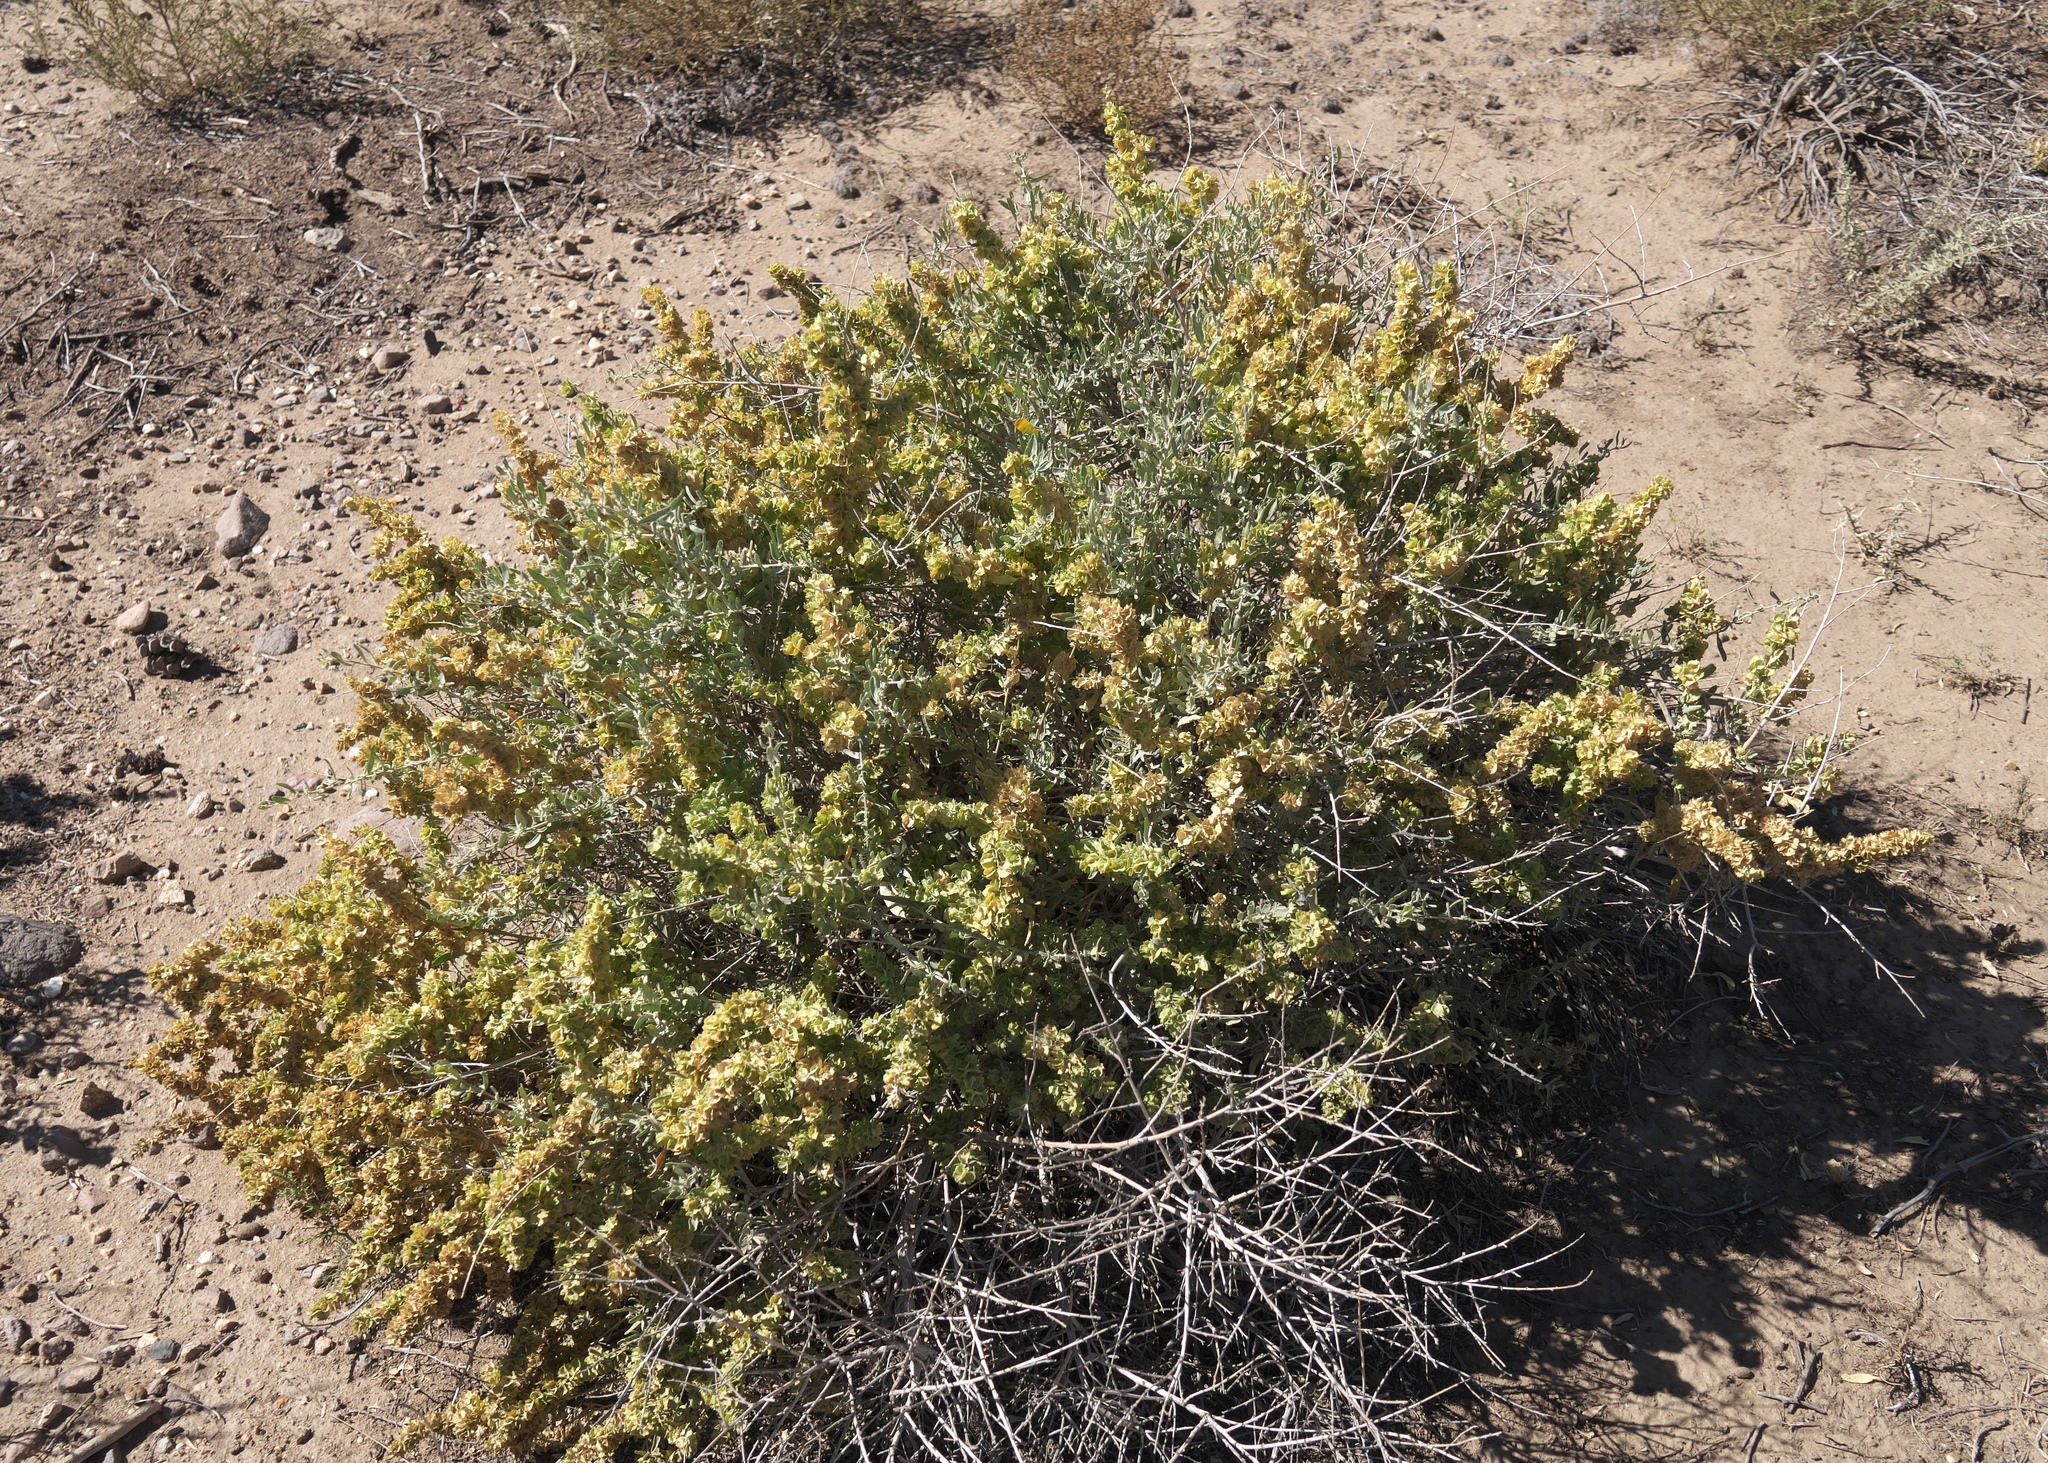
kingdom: Plantae
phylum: Tracheophyta
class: Magnoliopsida
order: Caryophyllales
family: Amaranthaceae
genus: Atriplex
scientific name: Atriplex canescens
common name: Four-wing saltbush
